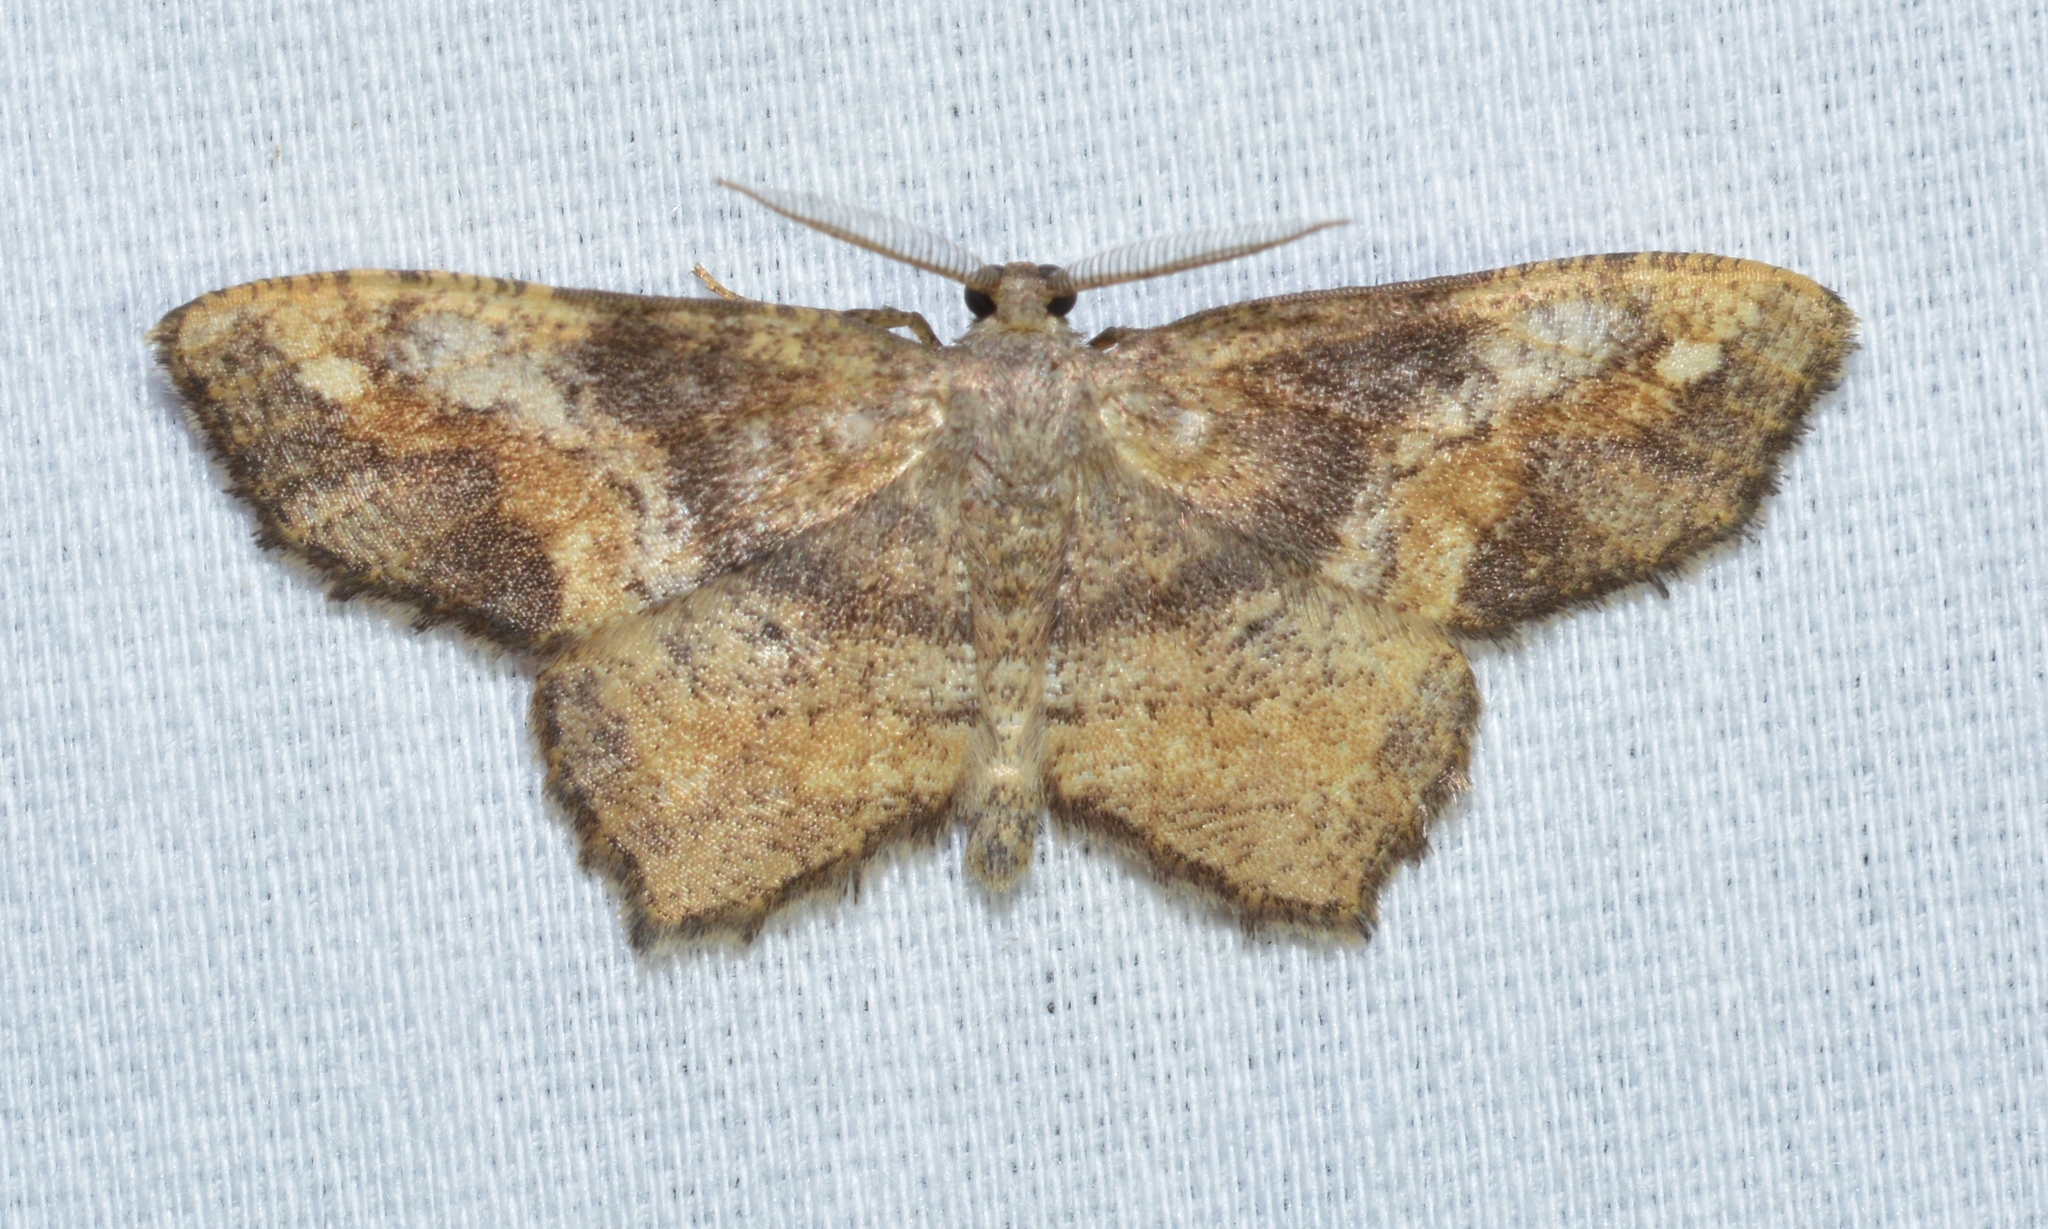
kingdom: Animalia
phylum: Arthropoda
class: Insecta
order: Lepidoptera
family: Geometridae
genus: Hypagyrtis
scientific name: Hypagyrtis unipunctata
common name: One-spotted variant
